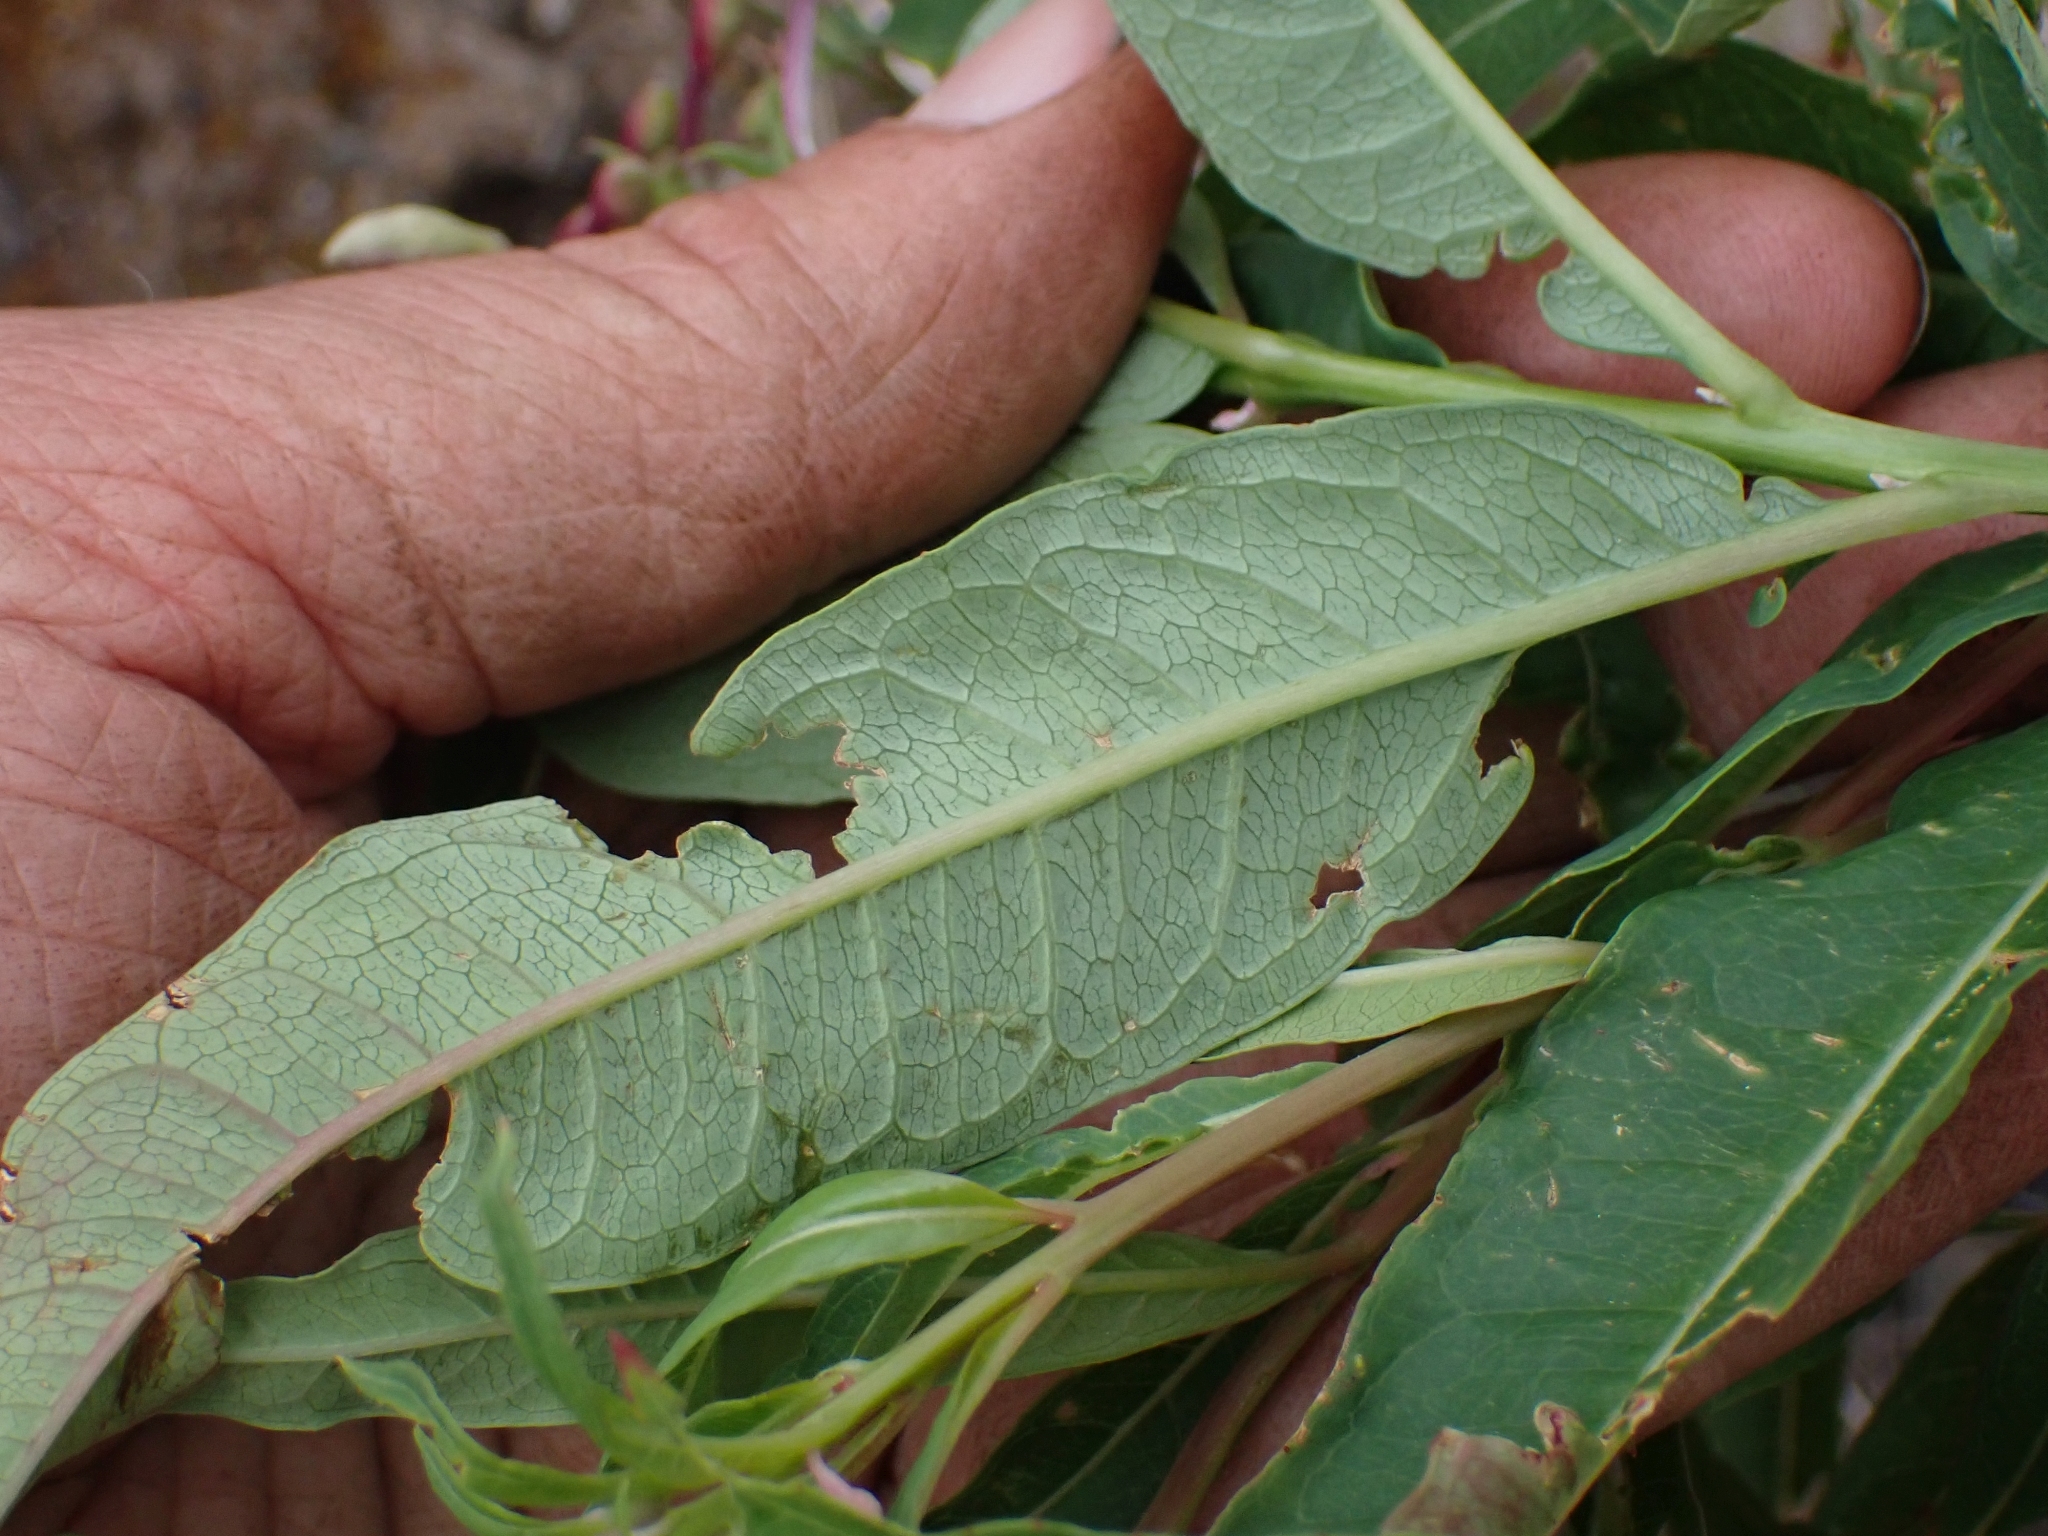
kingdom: Plantae
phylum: Tracheophyta
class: Magnoliopsida
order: Myrtales
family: Onagraceae
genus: Chamaenerion
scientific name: Chamaenerion angustifolium
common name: Fireweed
